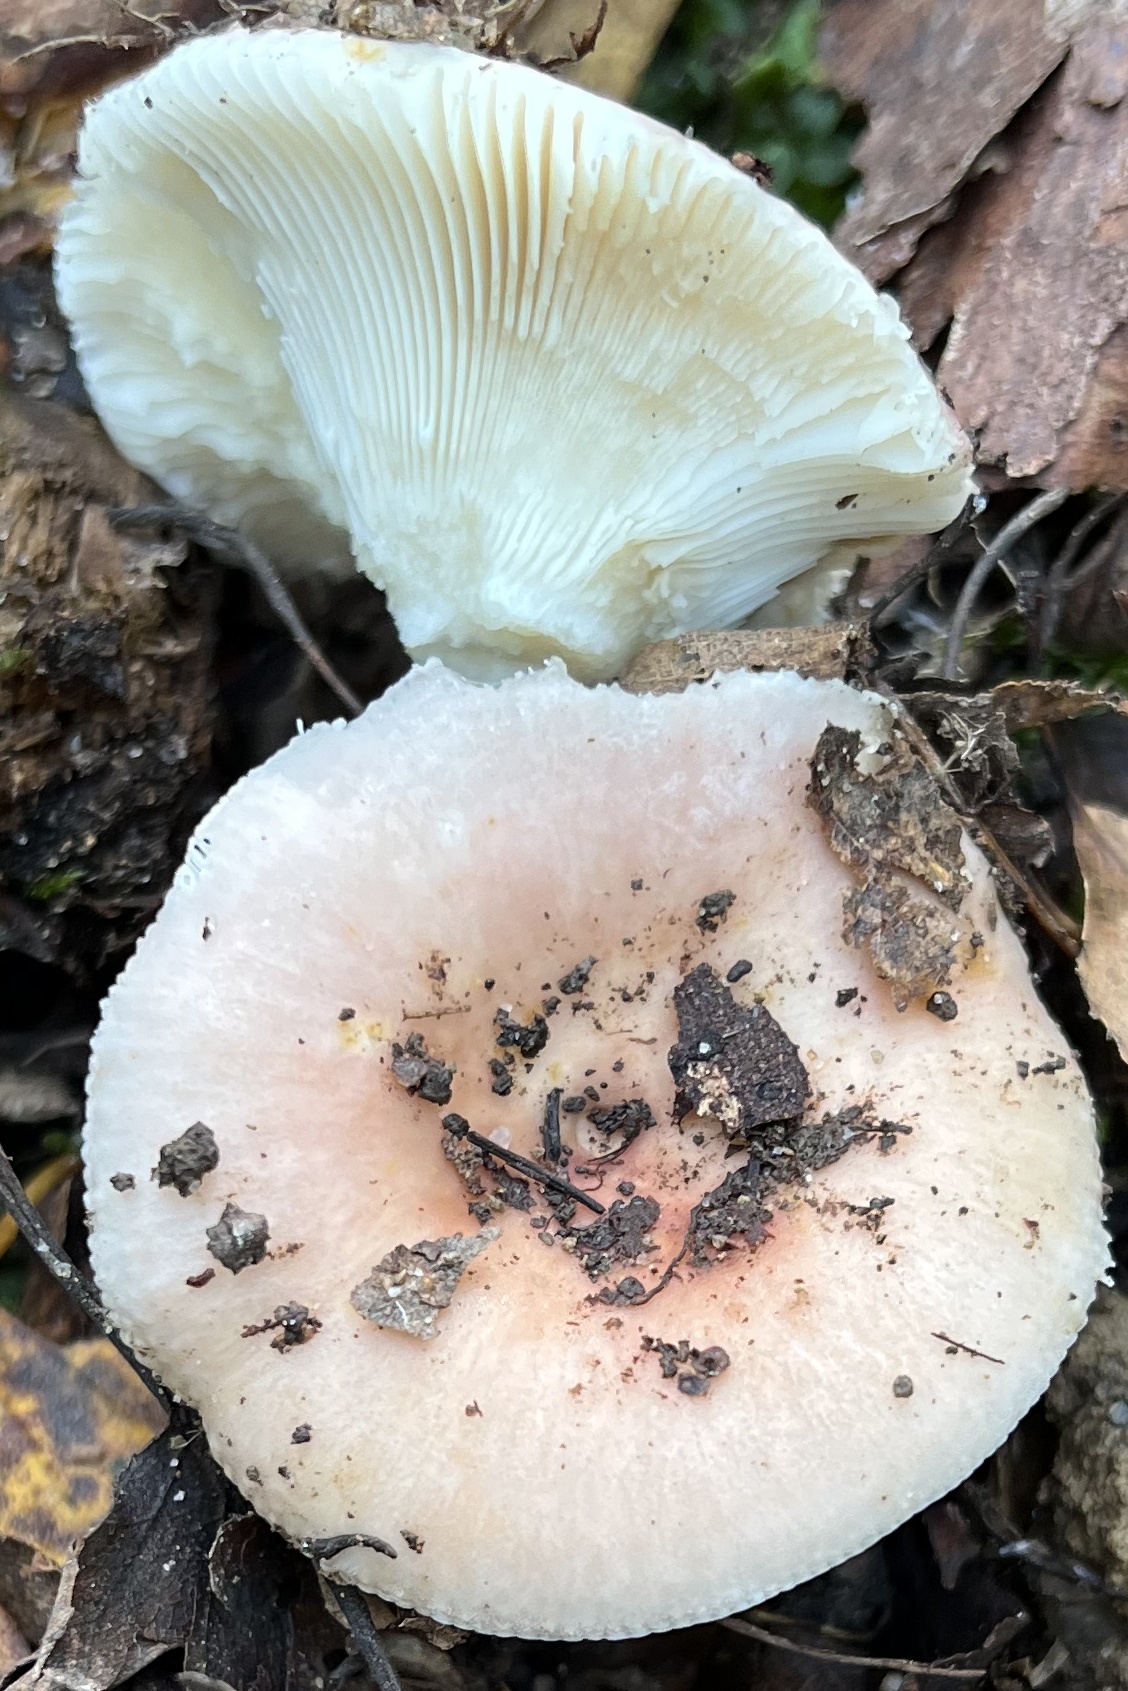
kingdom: Fungi
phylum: Basidiomycota
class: Agaricomycetes
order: Russulales
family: Russulaceae
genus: Russula
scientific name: Russula vesca
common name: Bare-toothed russula
